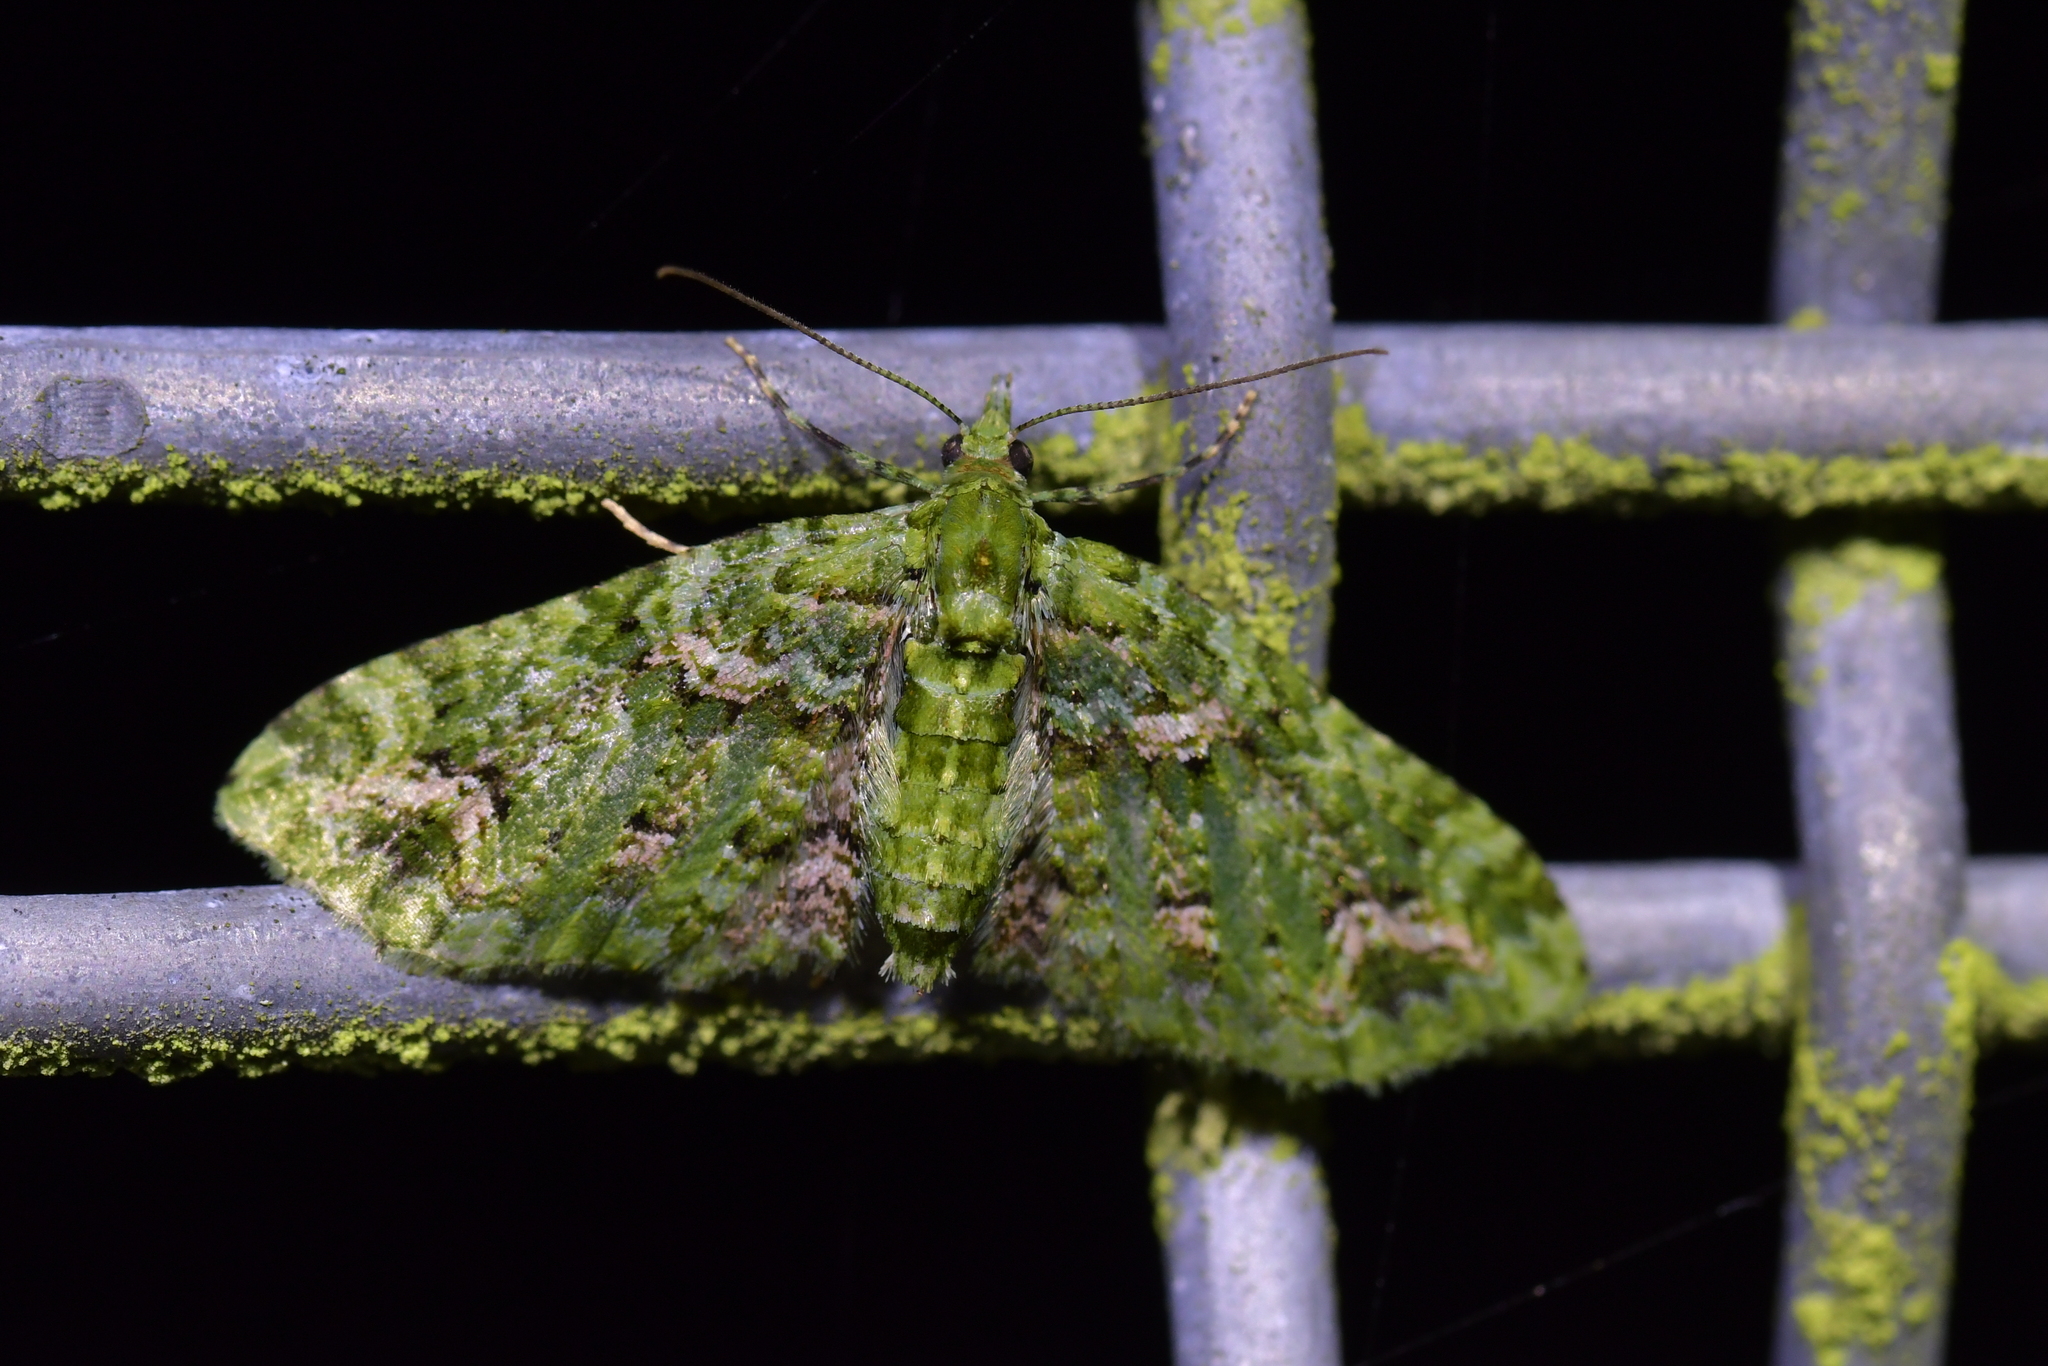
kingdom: Animalia
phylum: Arthropoda
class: Insecta
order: Lepidoptera
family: Geometridae
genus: Pasiphila
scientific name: Pasiphila muscosata
